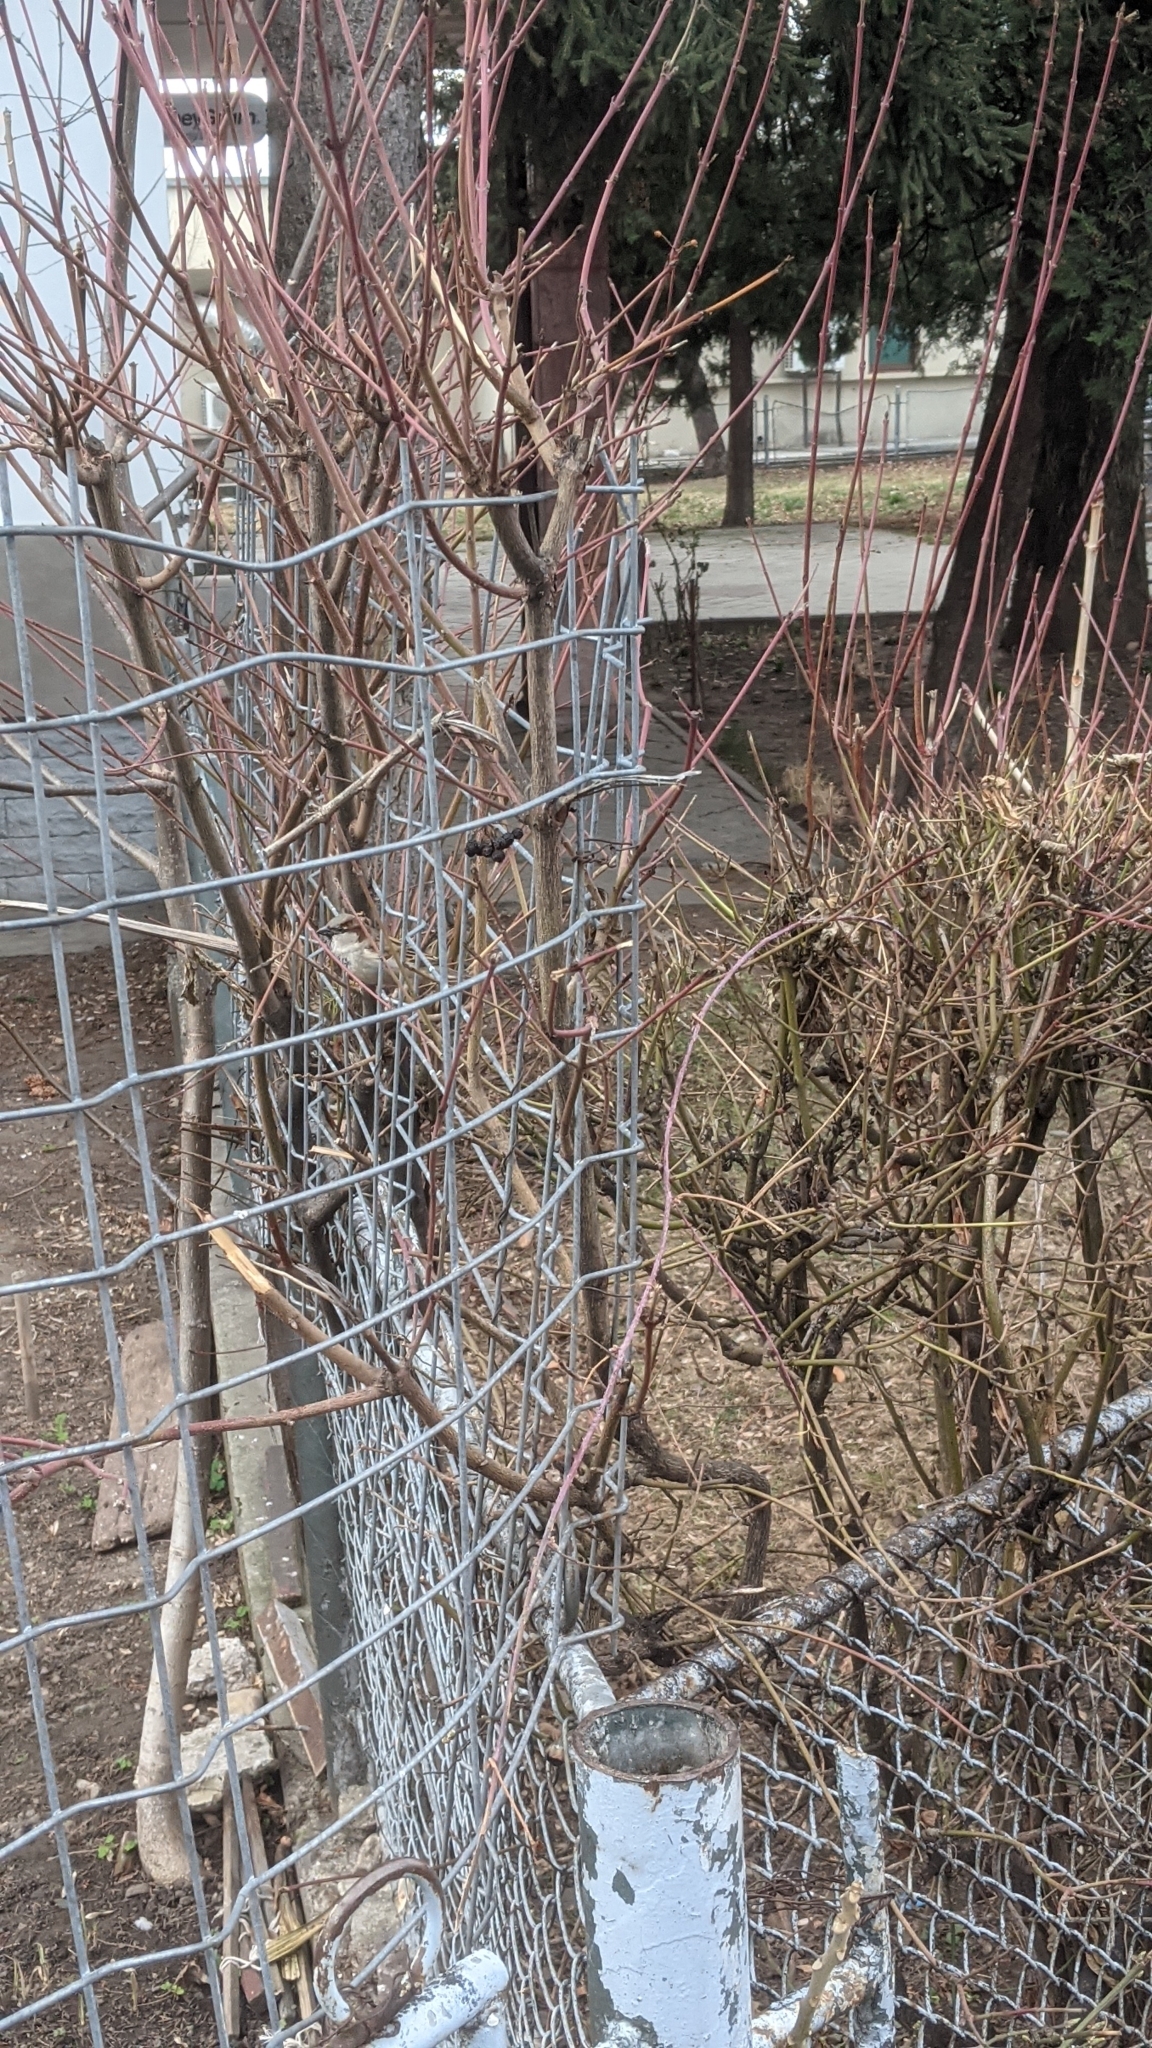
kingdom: Animalia
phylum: Chordata
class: Aves
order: Passeriformes
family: Passeridae
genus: Passer
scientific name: Passer domesticus
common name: House sparrow
